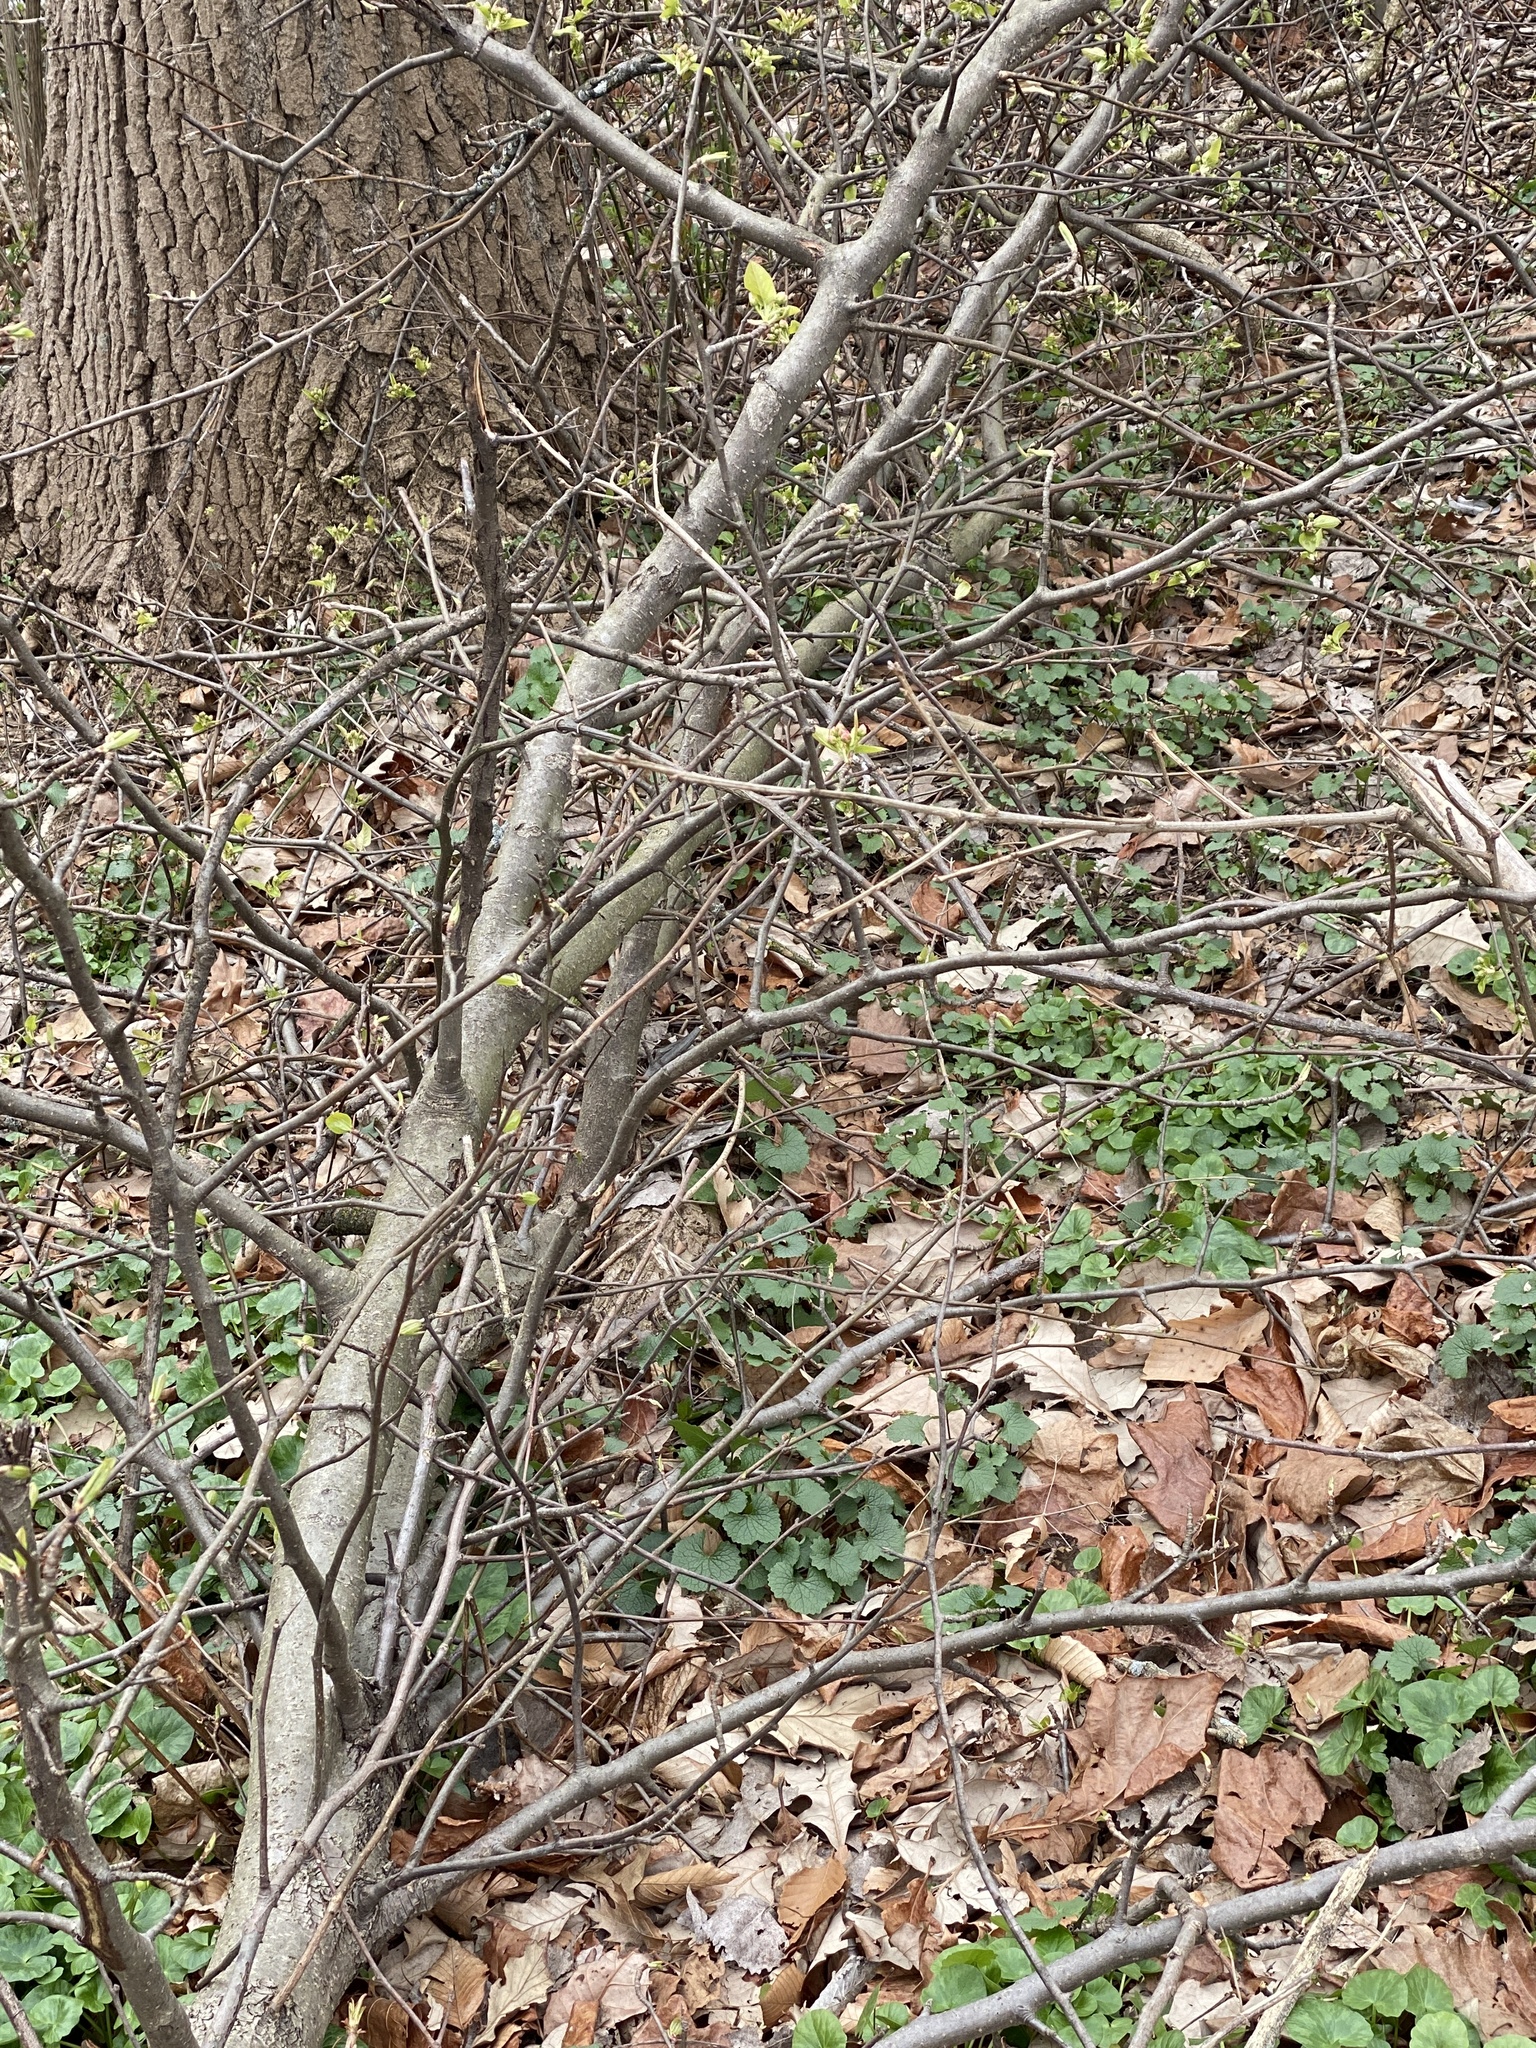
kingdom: Plantae
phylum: Tracheophyta
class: Magnoliopsida
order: Rosales
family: Rosaceae
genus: Pyrus
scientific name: Pyrus calleryana
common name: Callery pear
